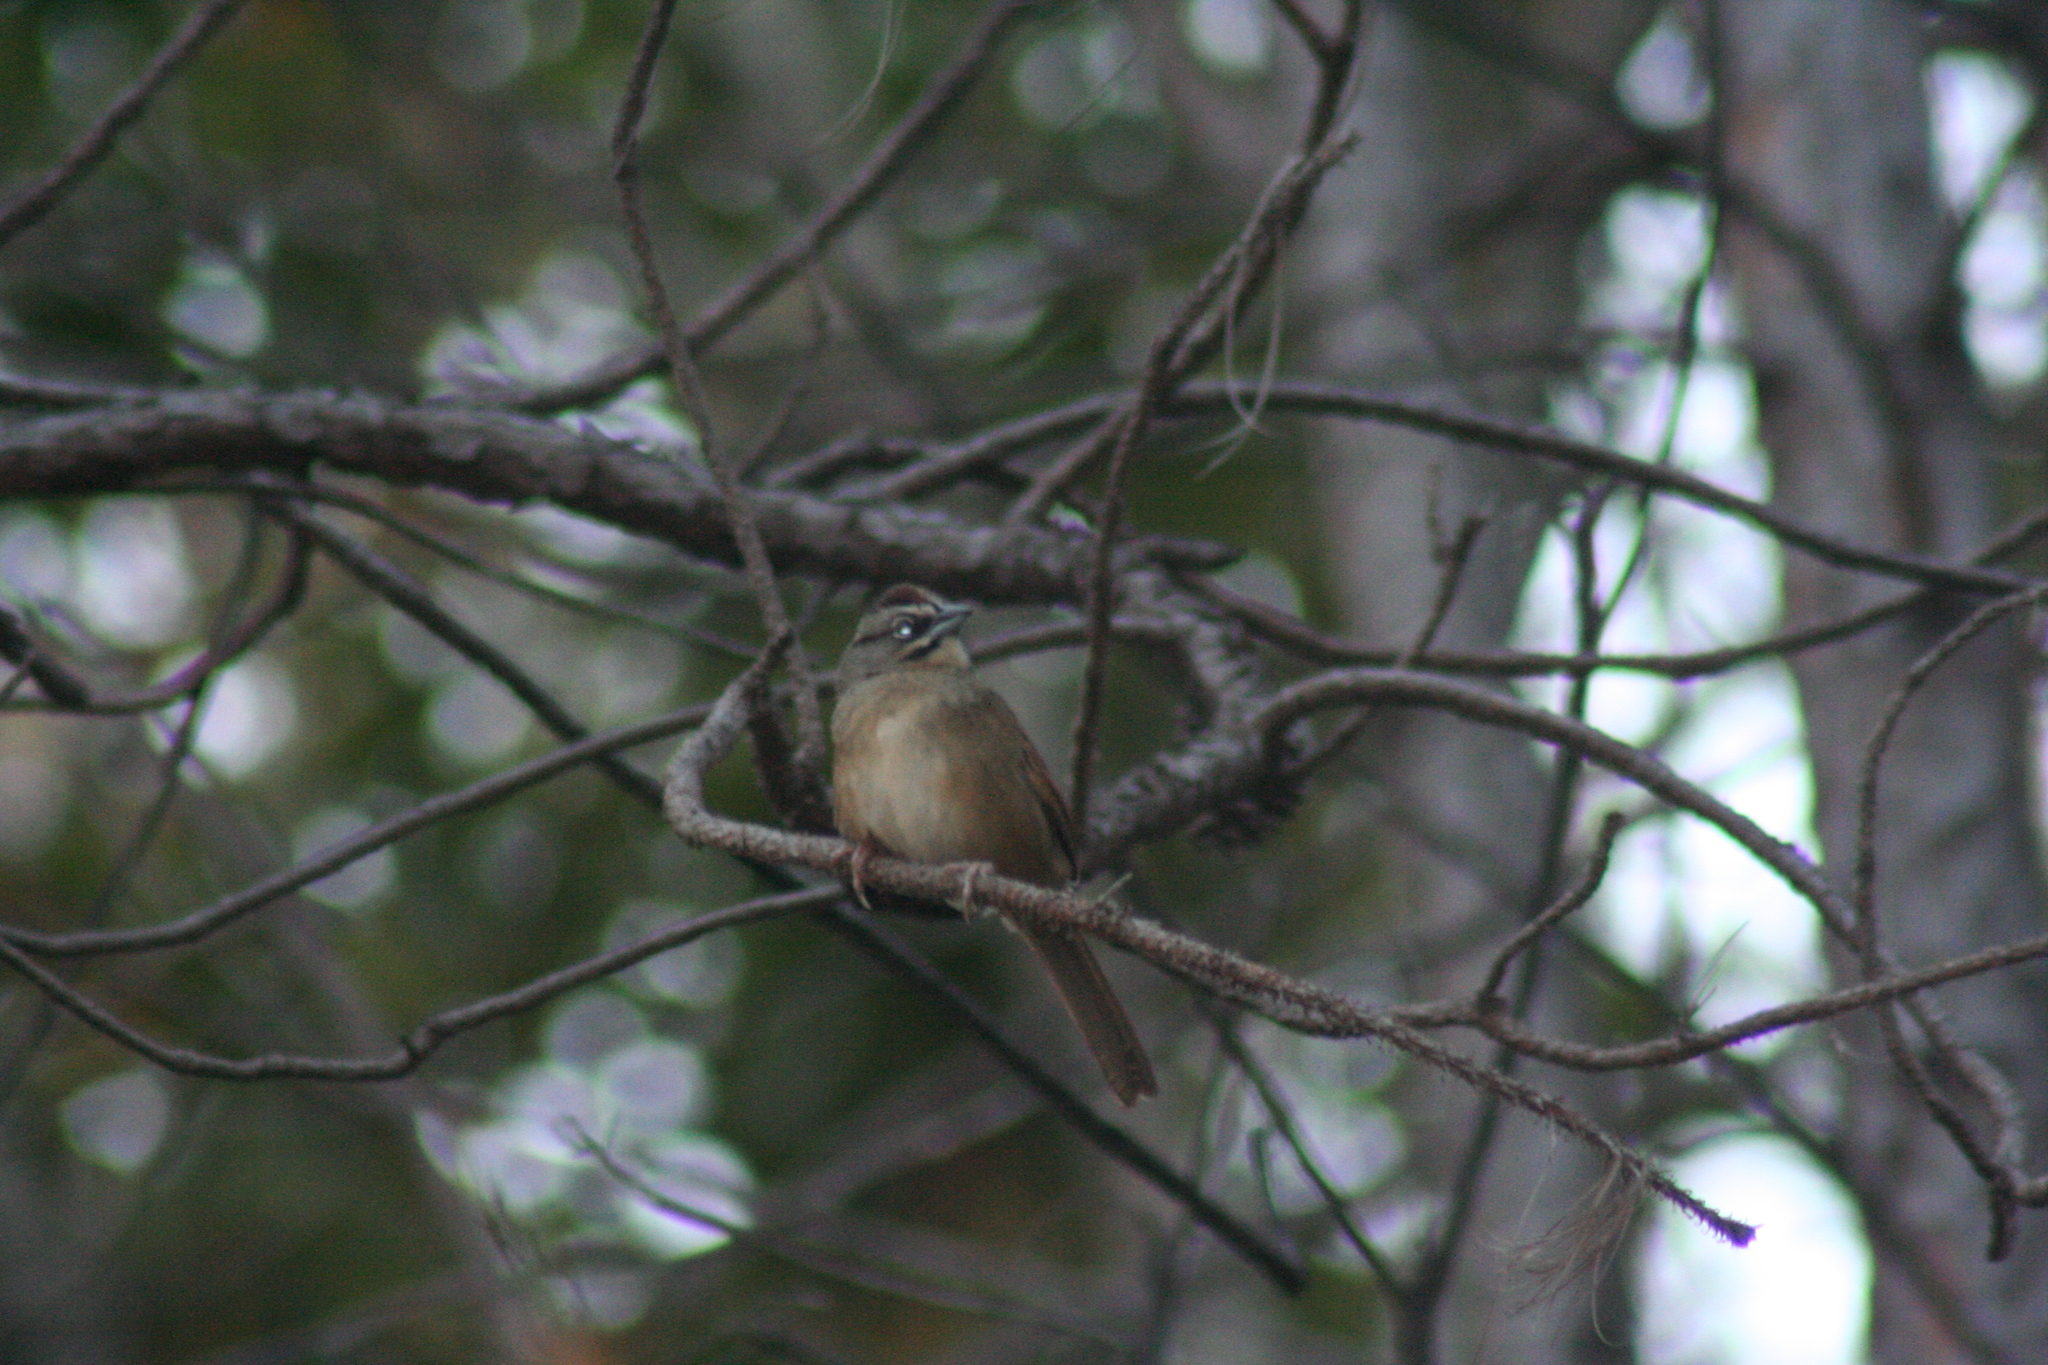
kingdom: Animalia
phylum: Chordata
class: Aves
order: Passeriformes
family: Passerellidae
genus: Aimophila
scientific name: Aimophila rufescens
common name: Rusty sparrow
